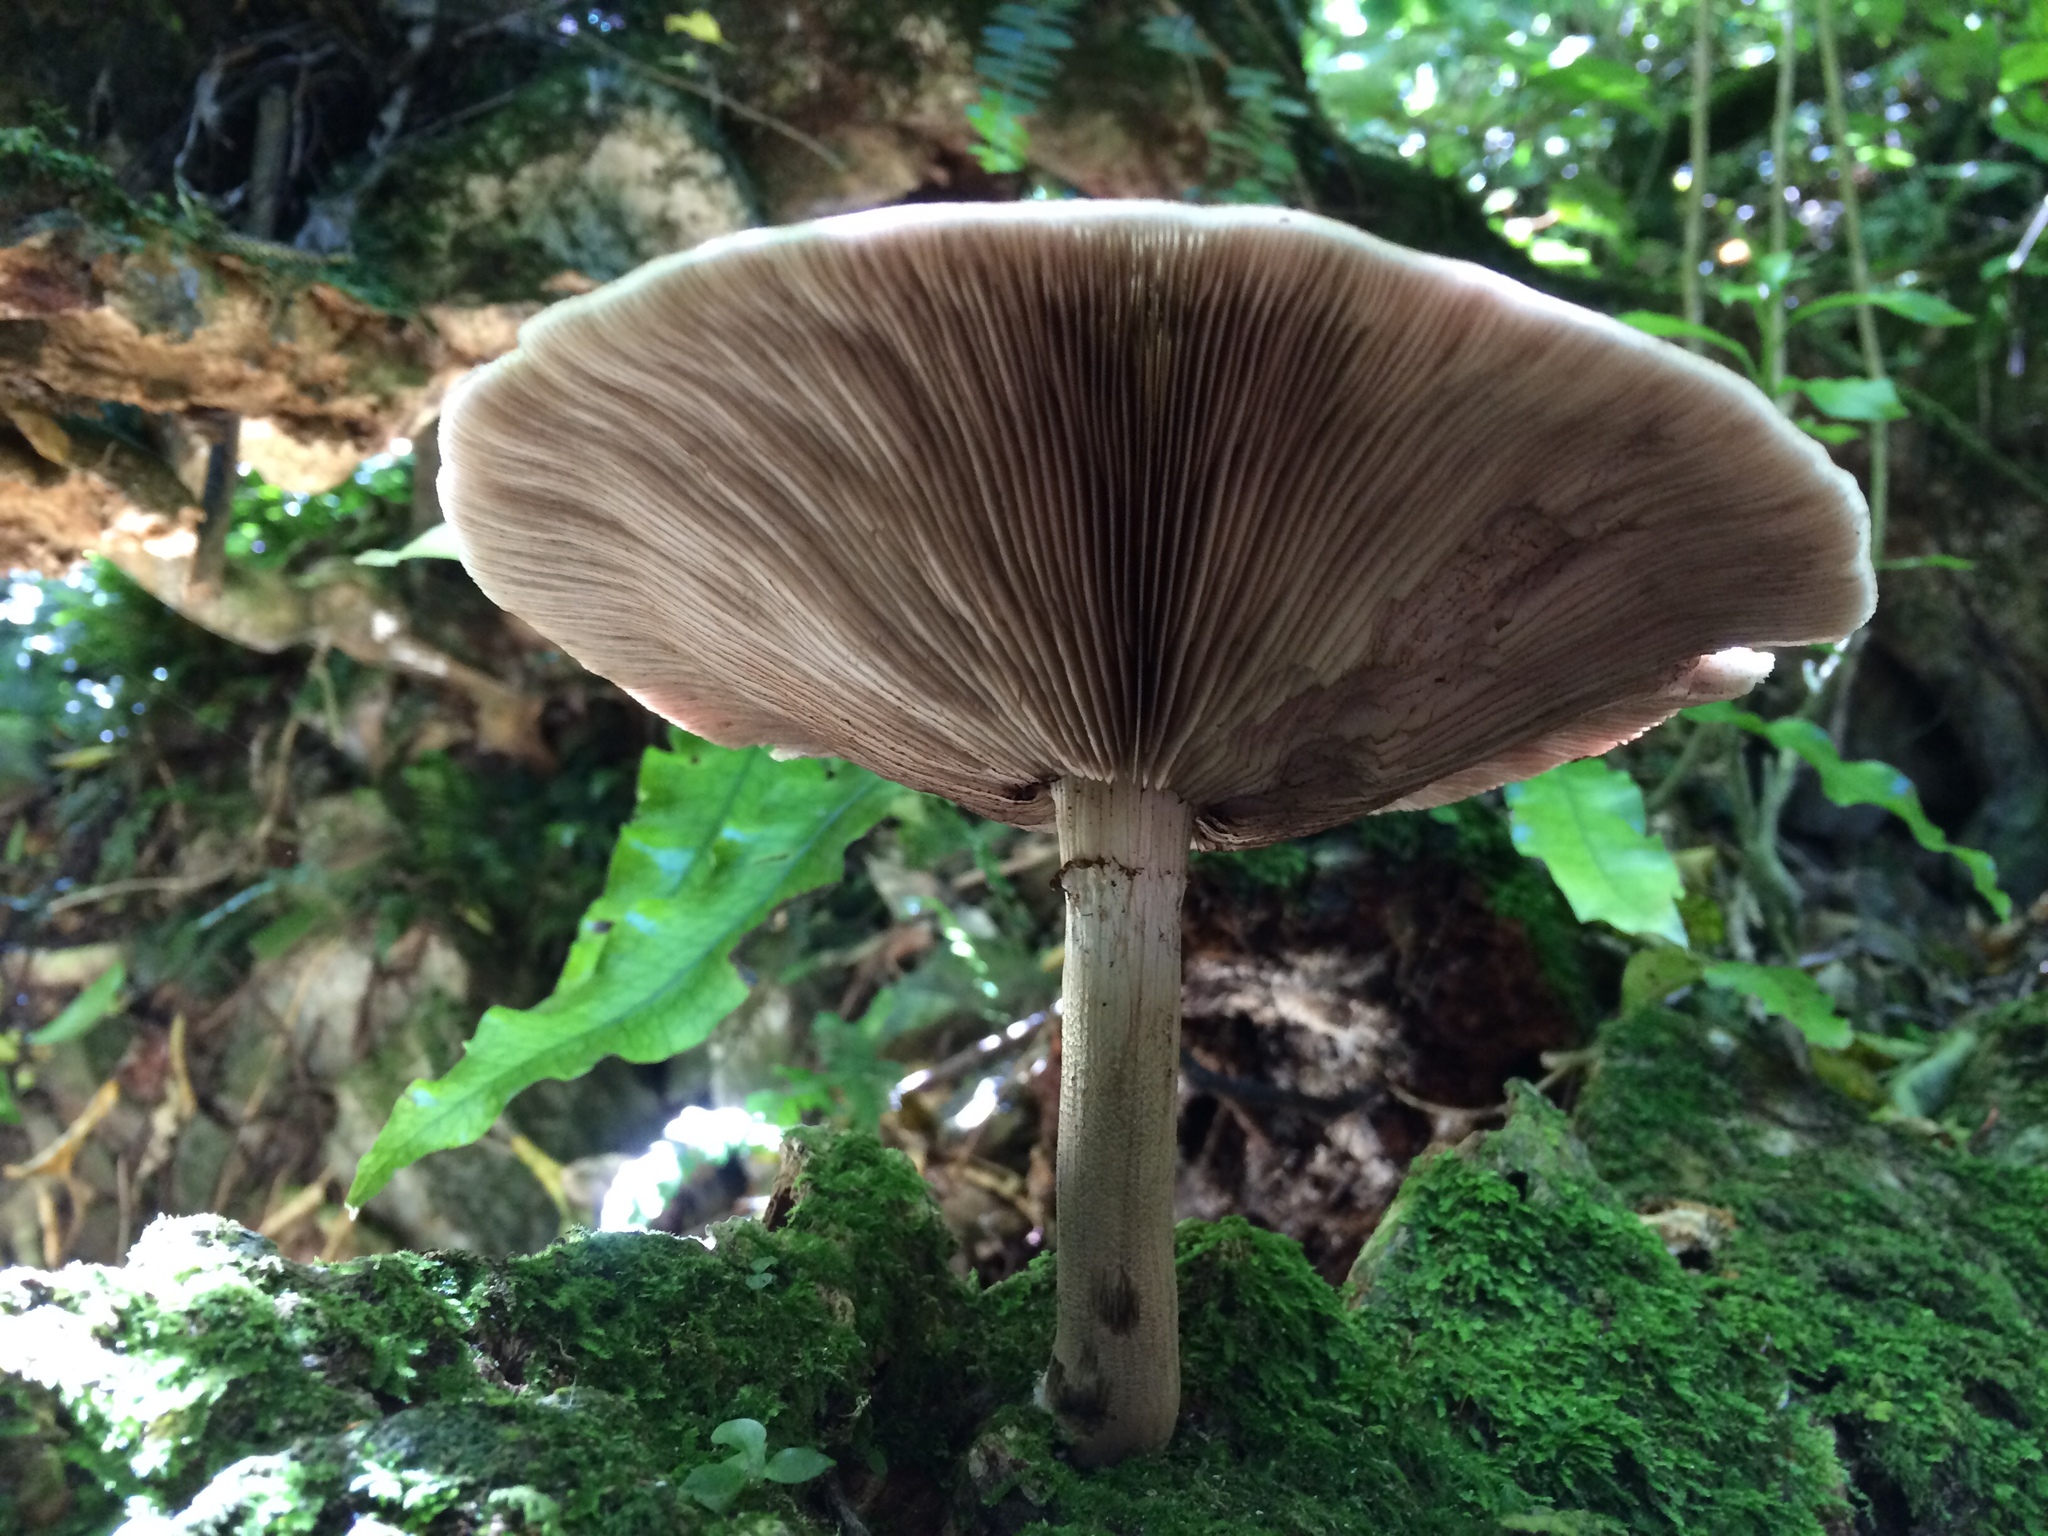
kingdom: Fungi
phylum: Basidiomycota
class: Agaricomycetes
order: Agaricales
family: Tubariaceae
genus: Cyclocybe
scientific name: Cyclocybe parasitica
